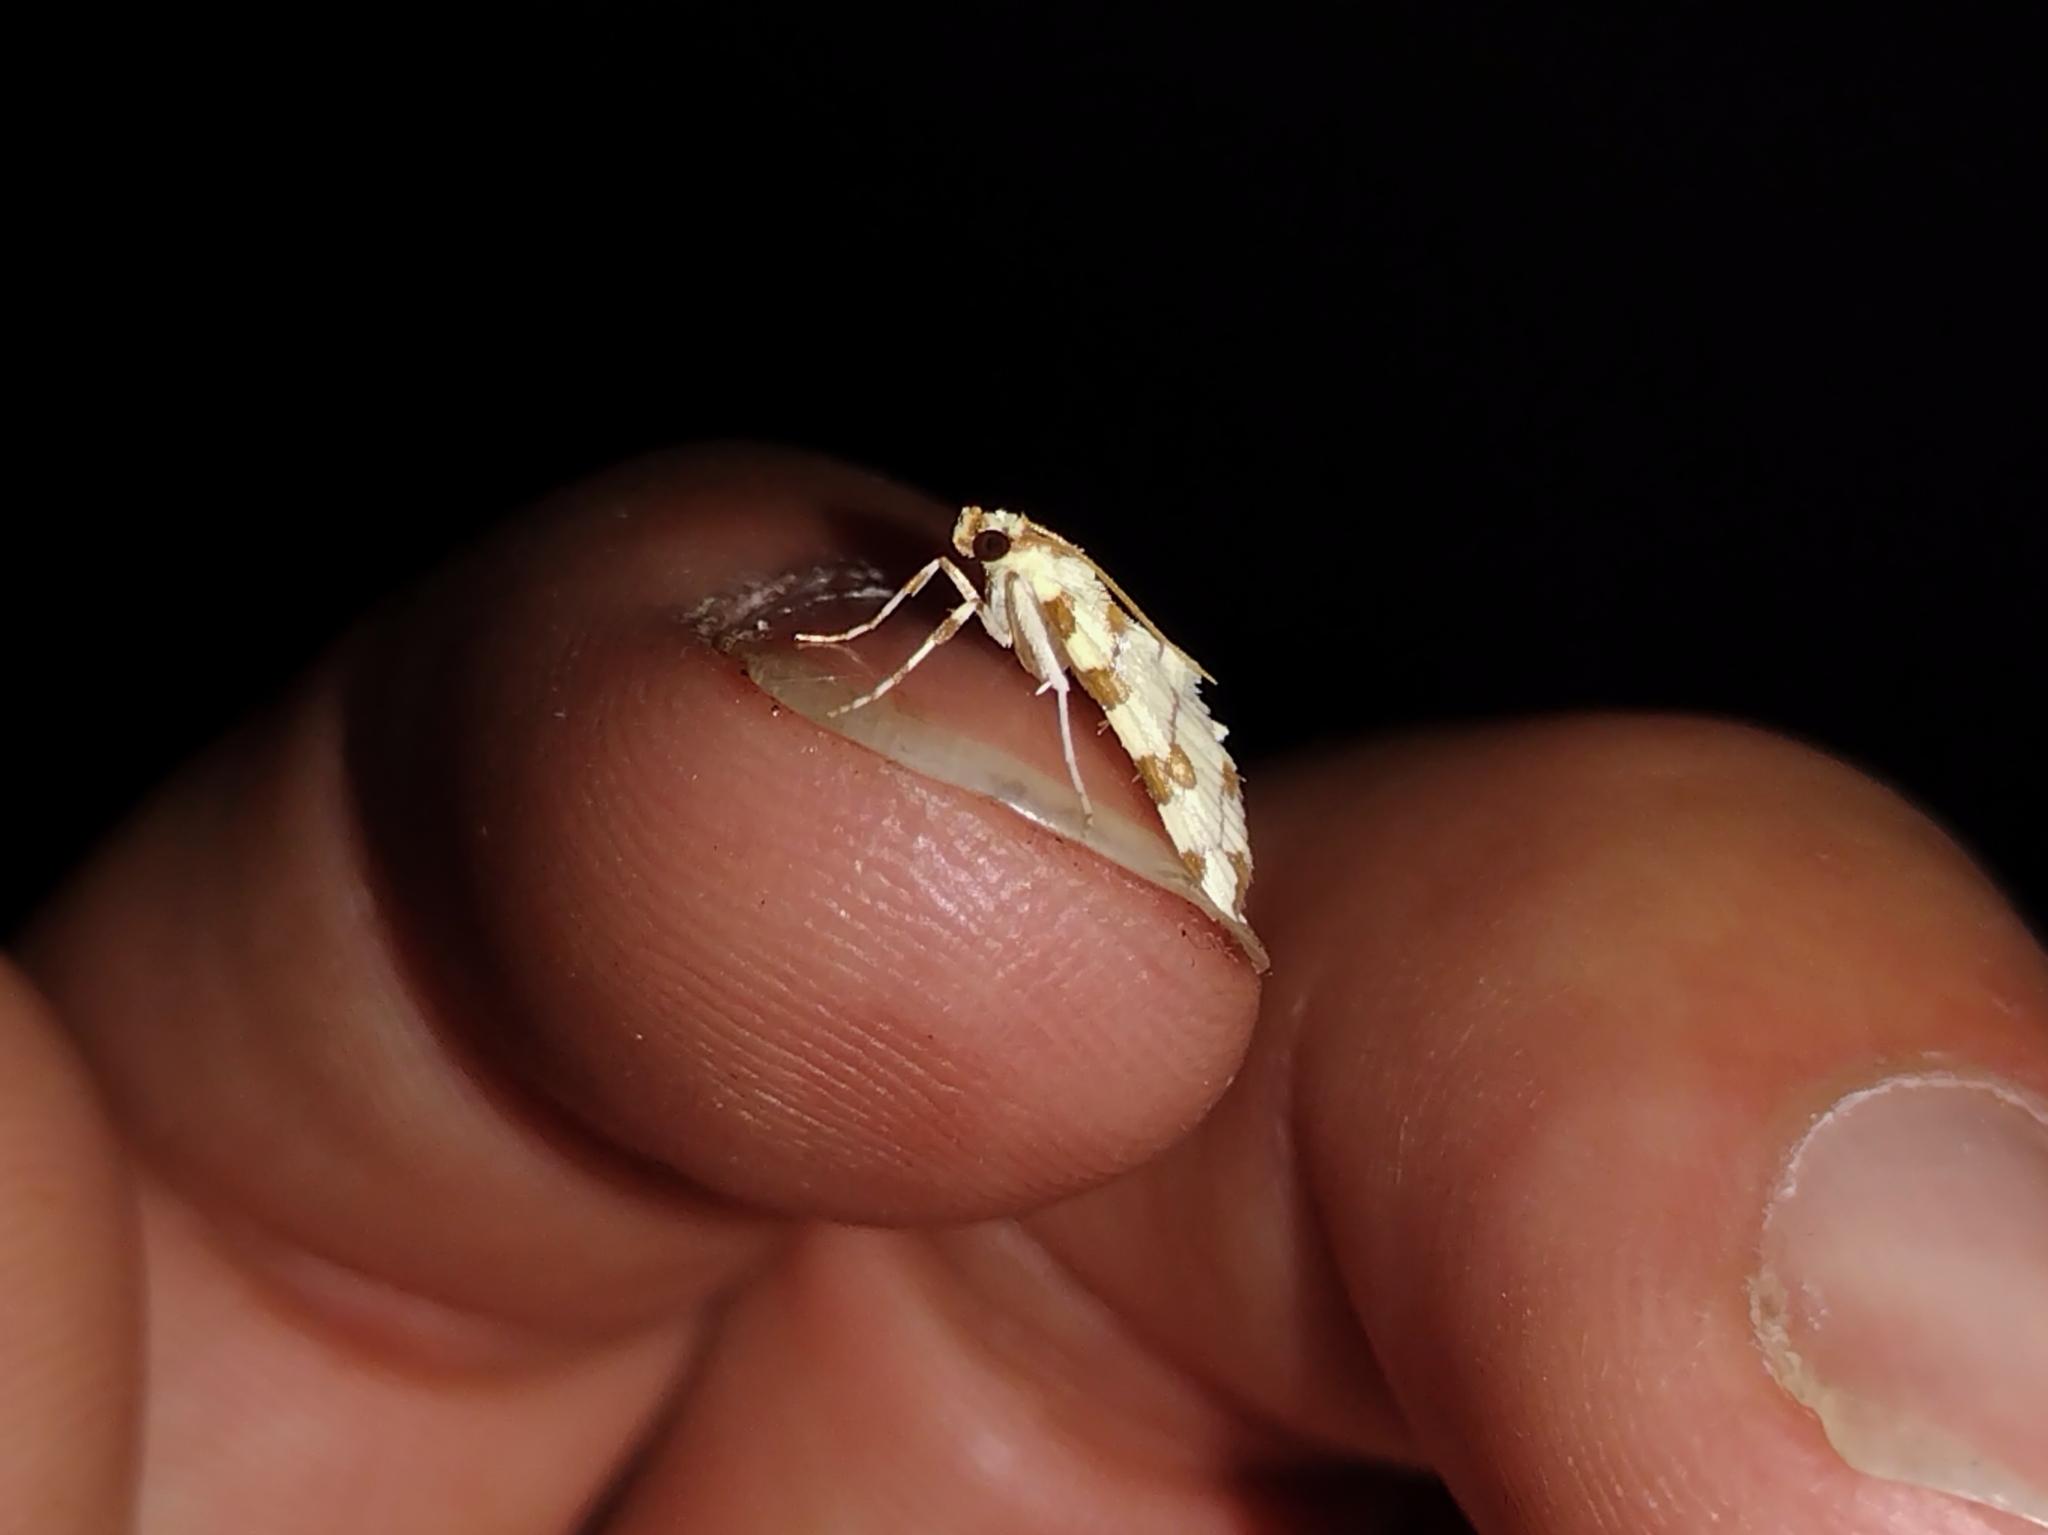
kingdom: Animalia
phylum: Arthropoda
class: Insecta
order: Lepidoptera
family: Crambidae
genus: Conchylodes
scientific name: Conchylodes
